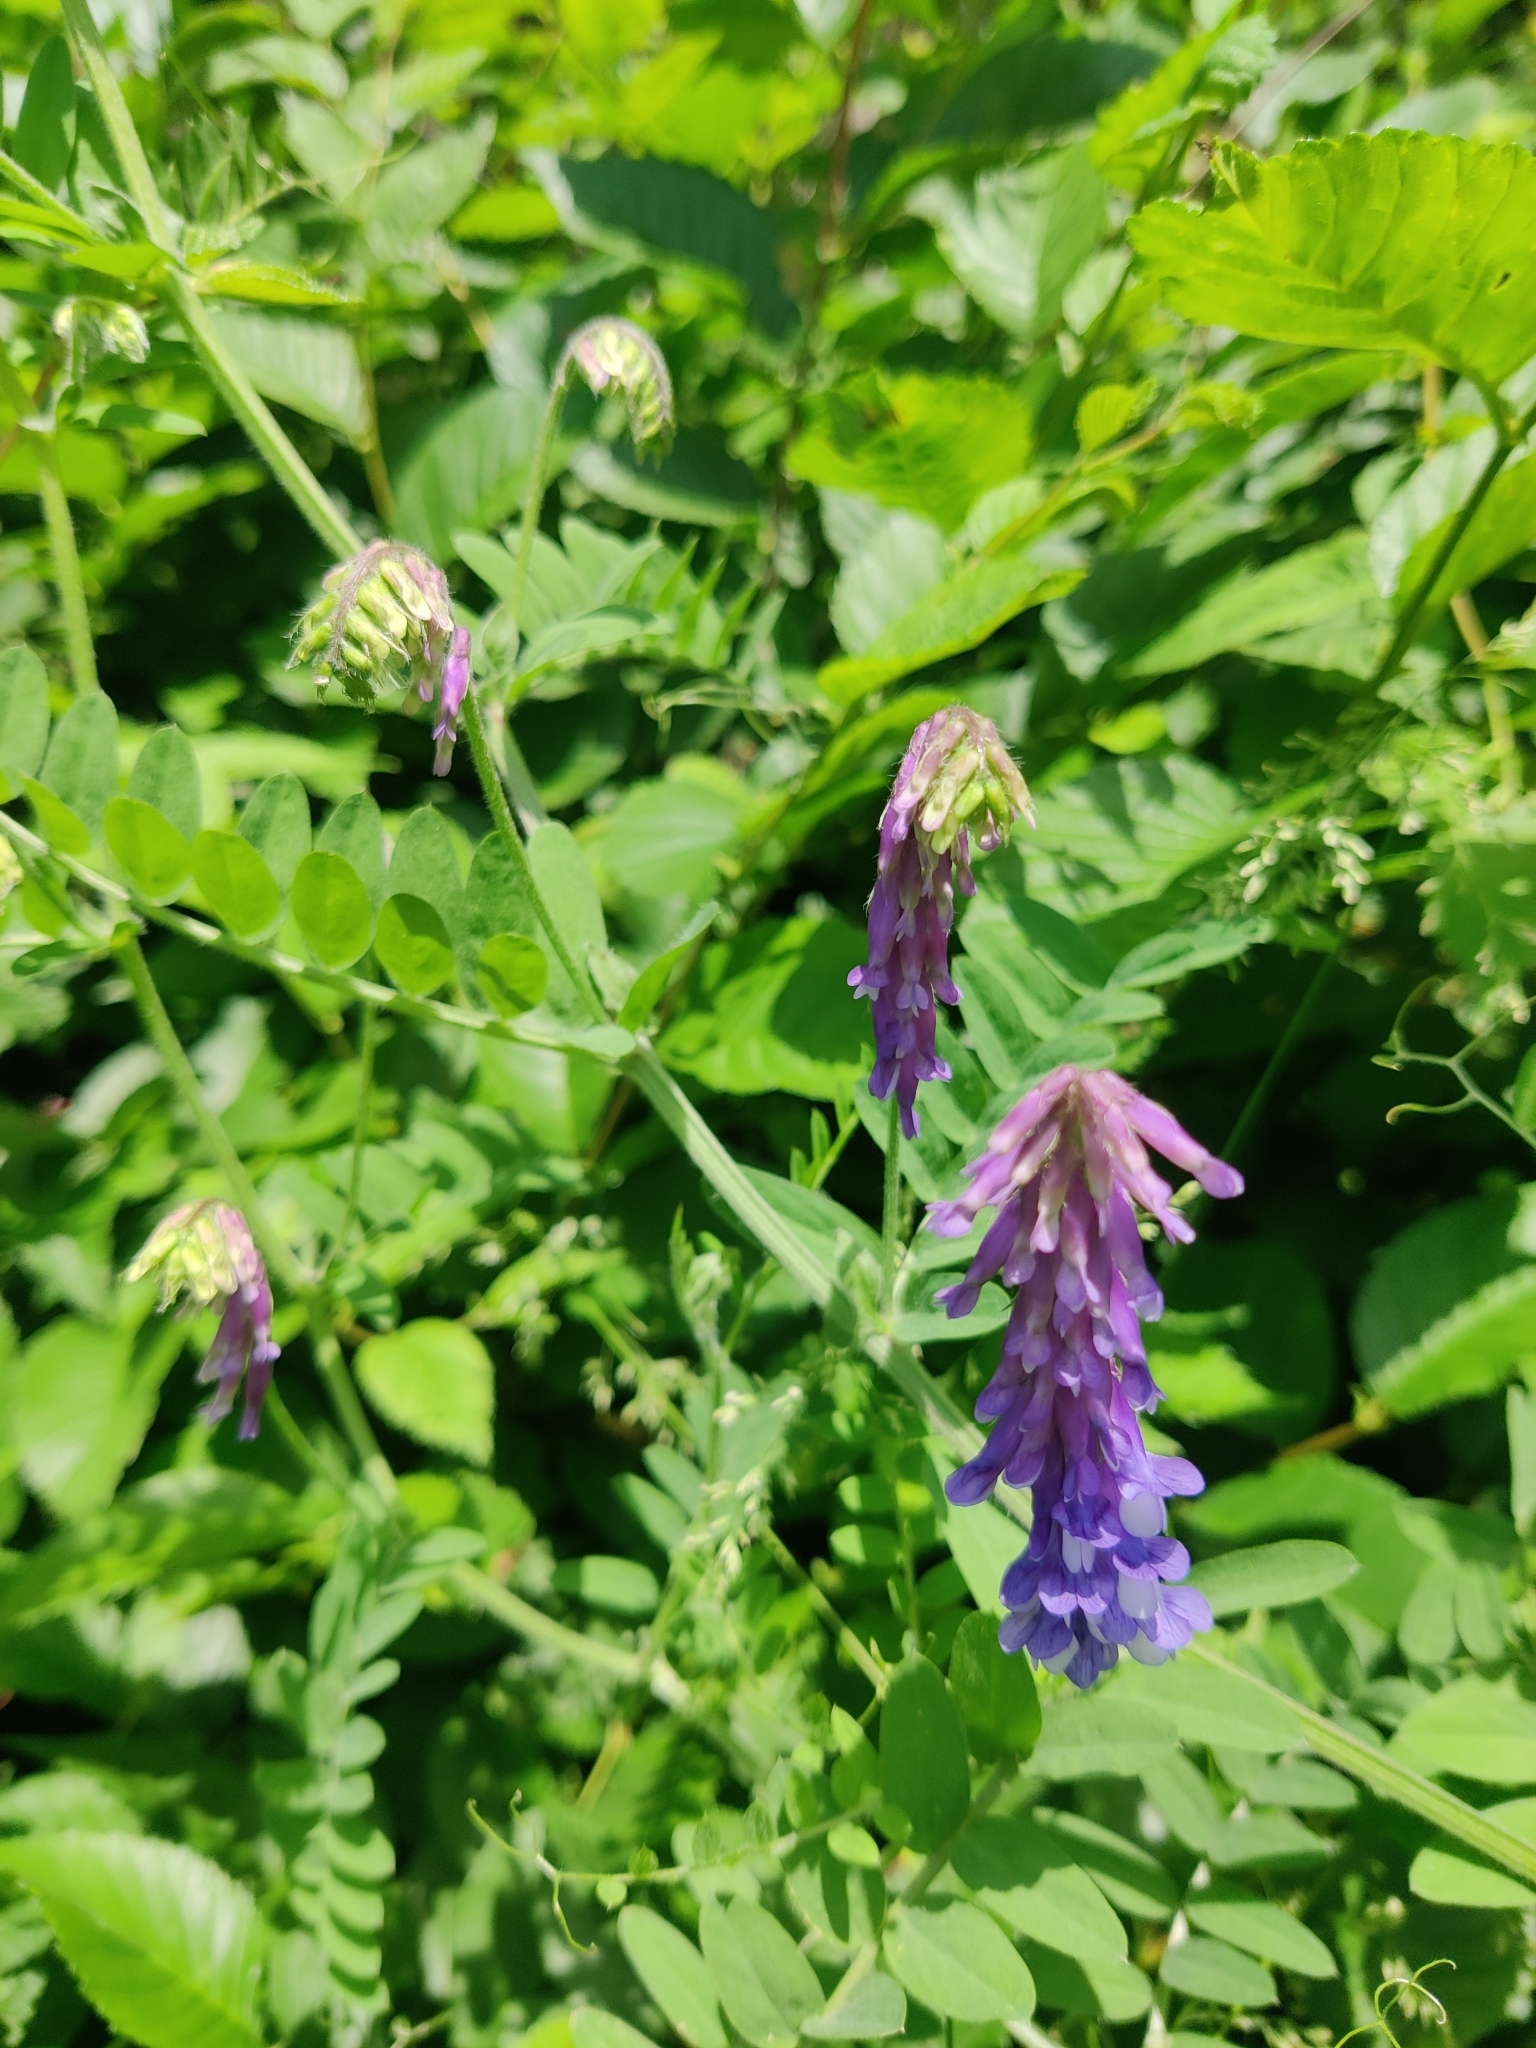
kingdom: Plantae
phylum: Tracheophyta
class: Magnoliopsida
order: Fabales
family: Fabaceae
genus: Vicia
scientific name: Vicia villosa
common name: Fodder vetch
